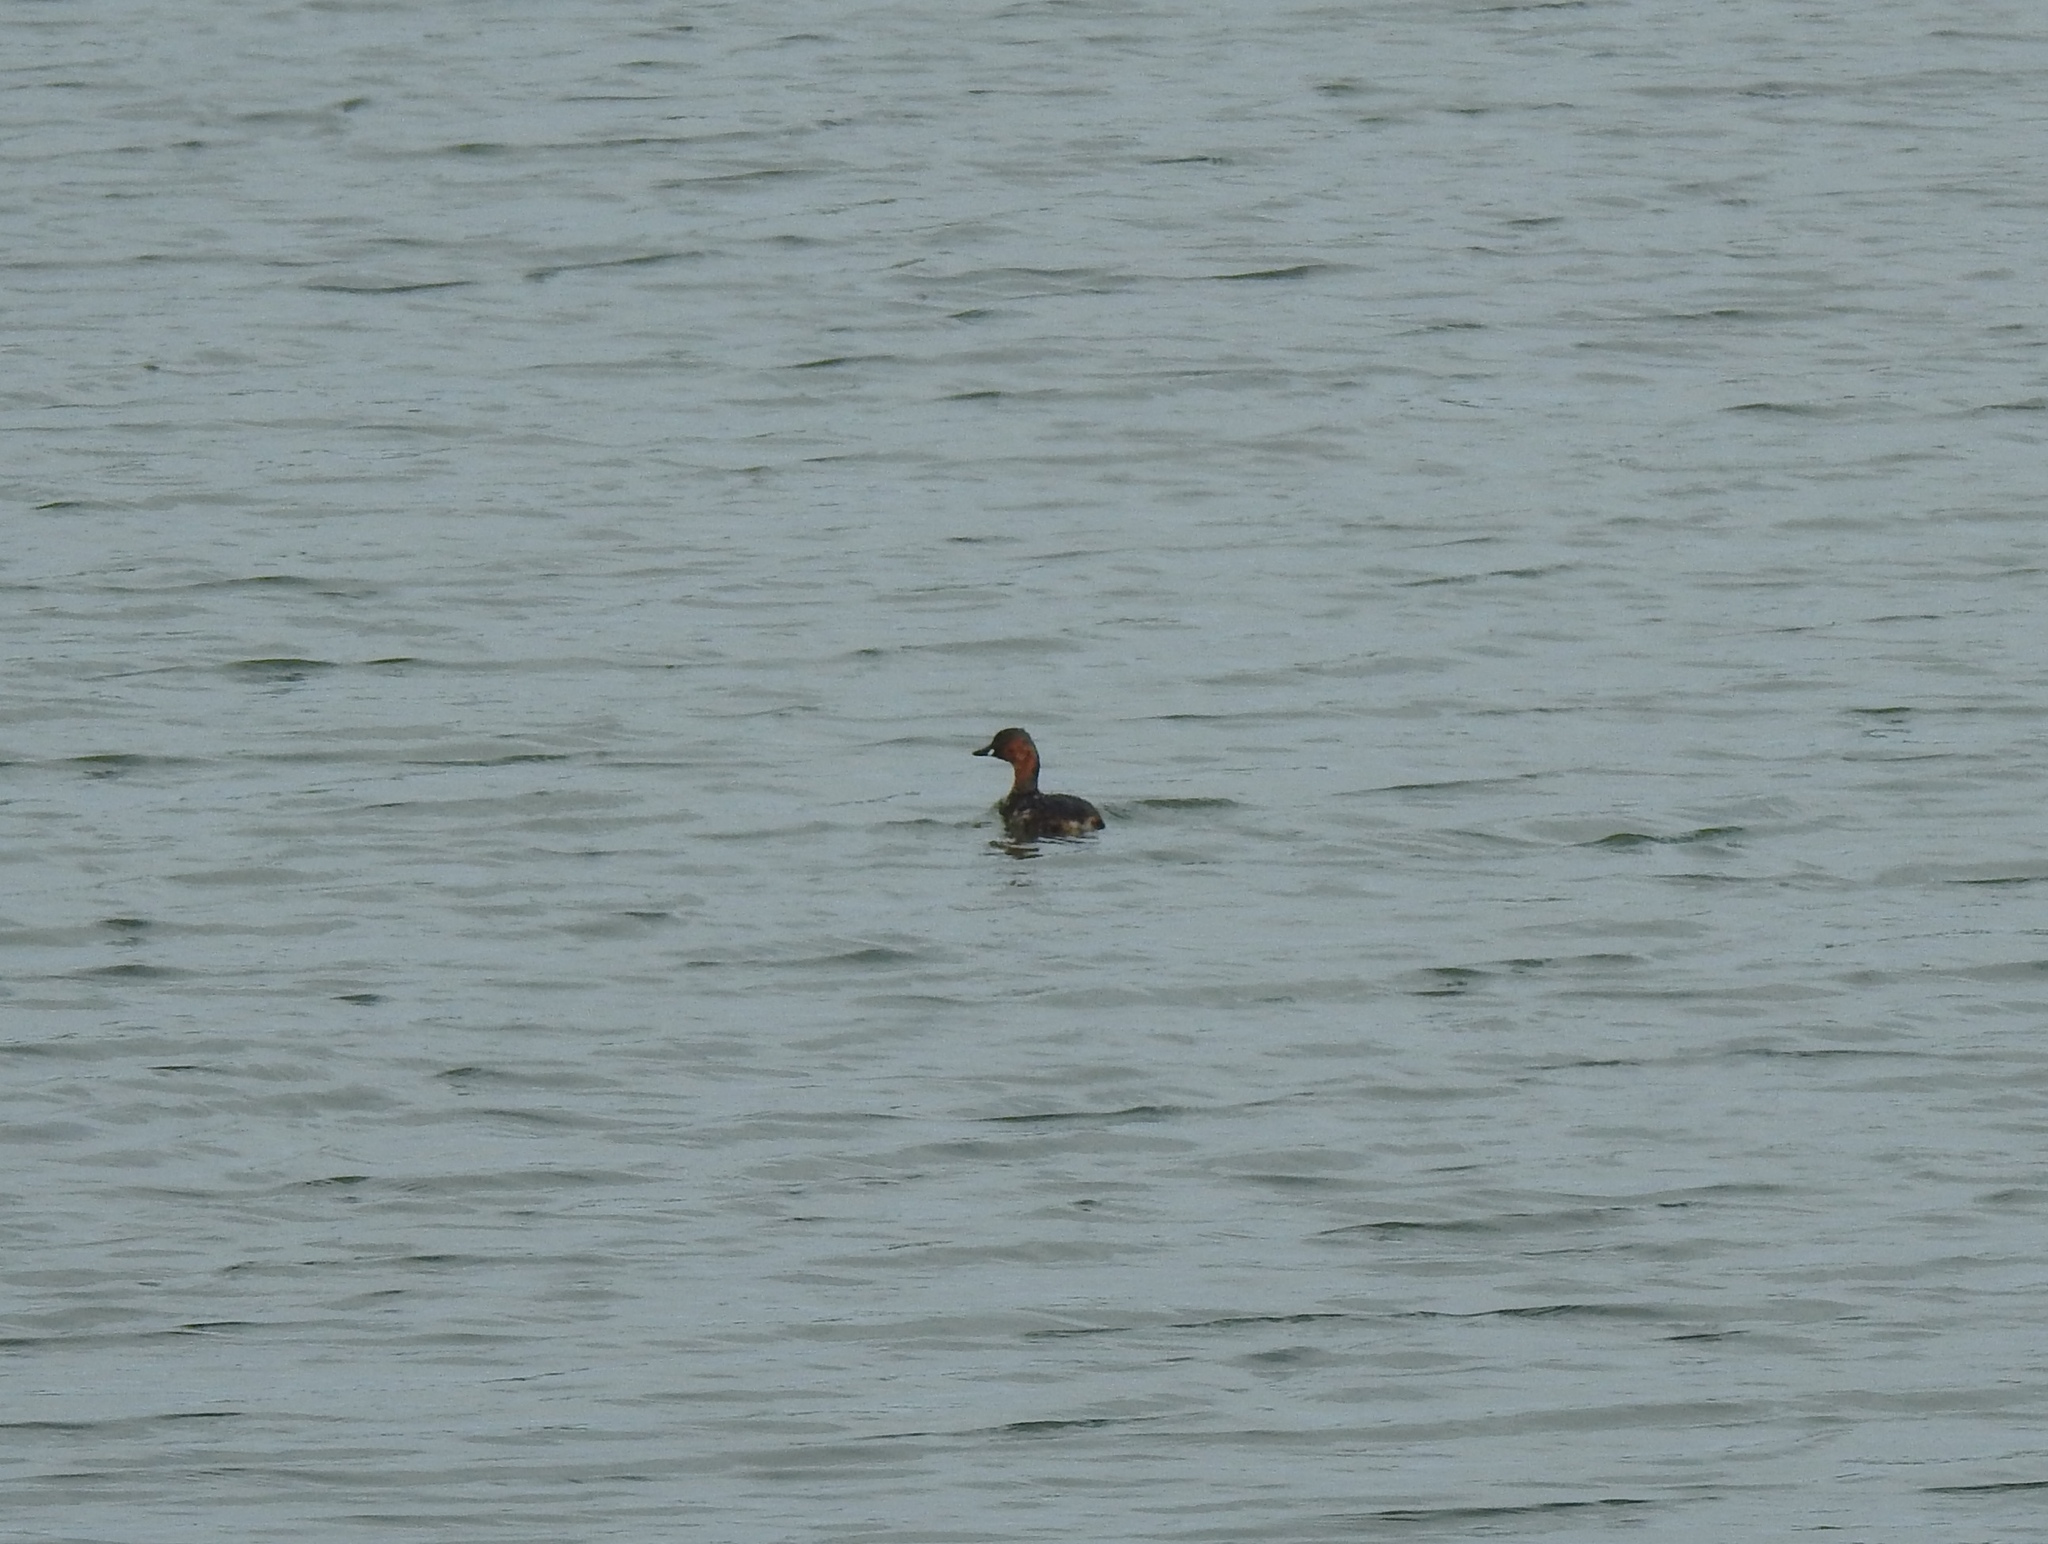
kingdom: Animalia
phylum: Chordata
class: Aves
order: Podicipediformes
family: Podicipedidae
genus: Tachybaptus
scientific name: Tachybaptus ruficollis
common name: Little grebe
